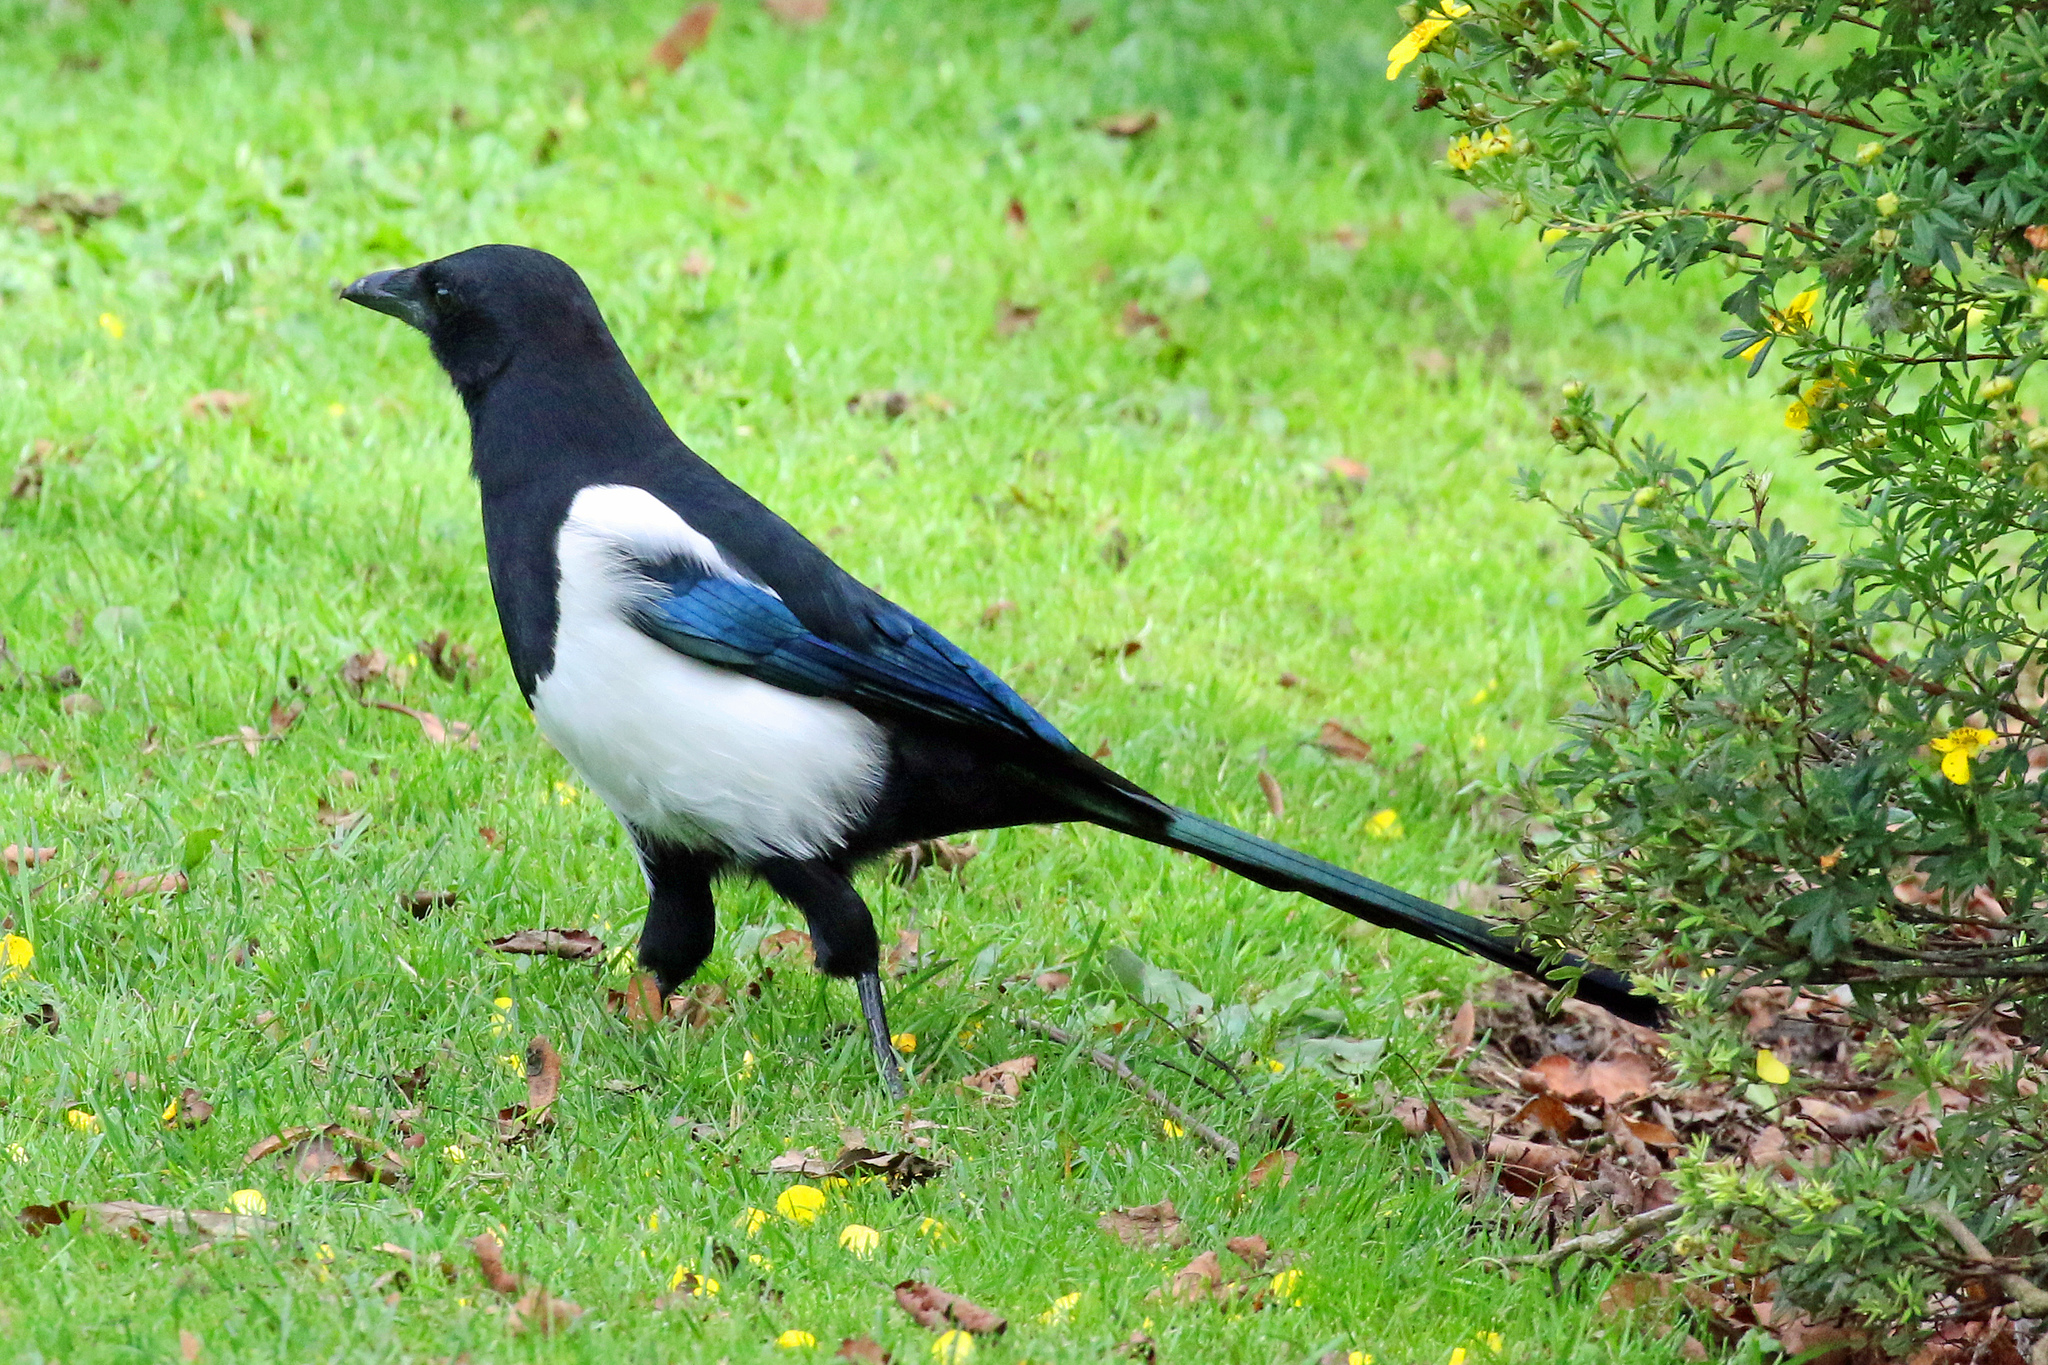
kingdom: Animalia
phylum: Chordata
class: Aves
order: Passeriformes
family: Corvidae
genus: Pica
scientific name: Pica pica
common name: Eurasian magpie
